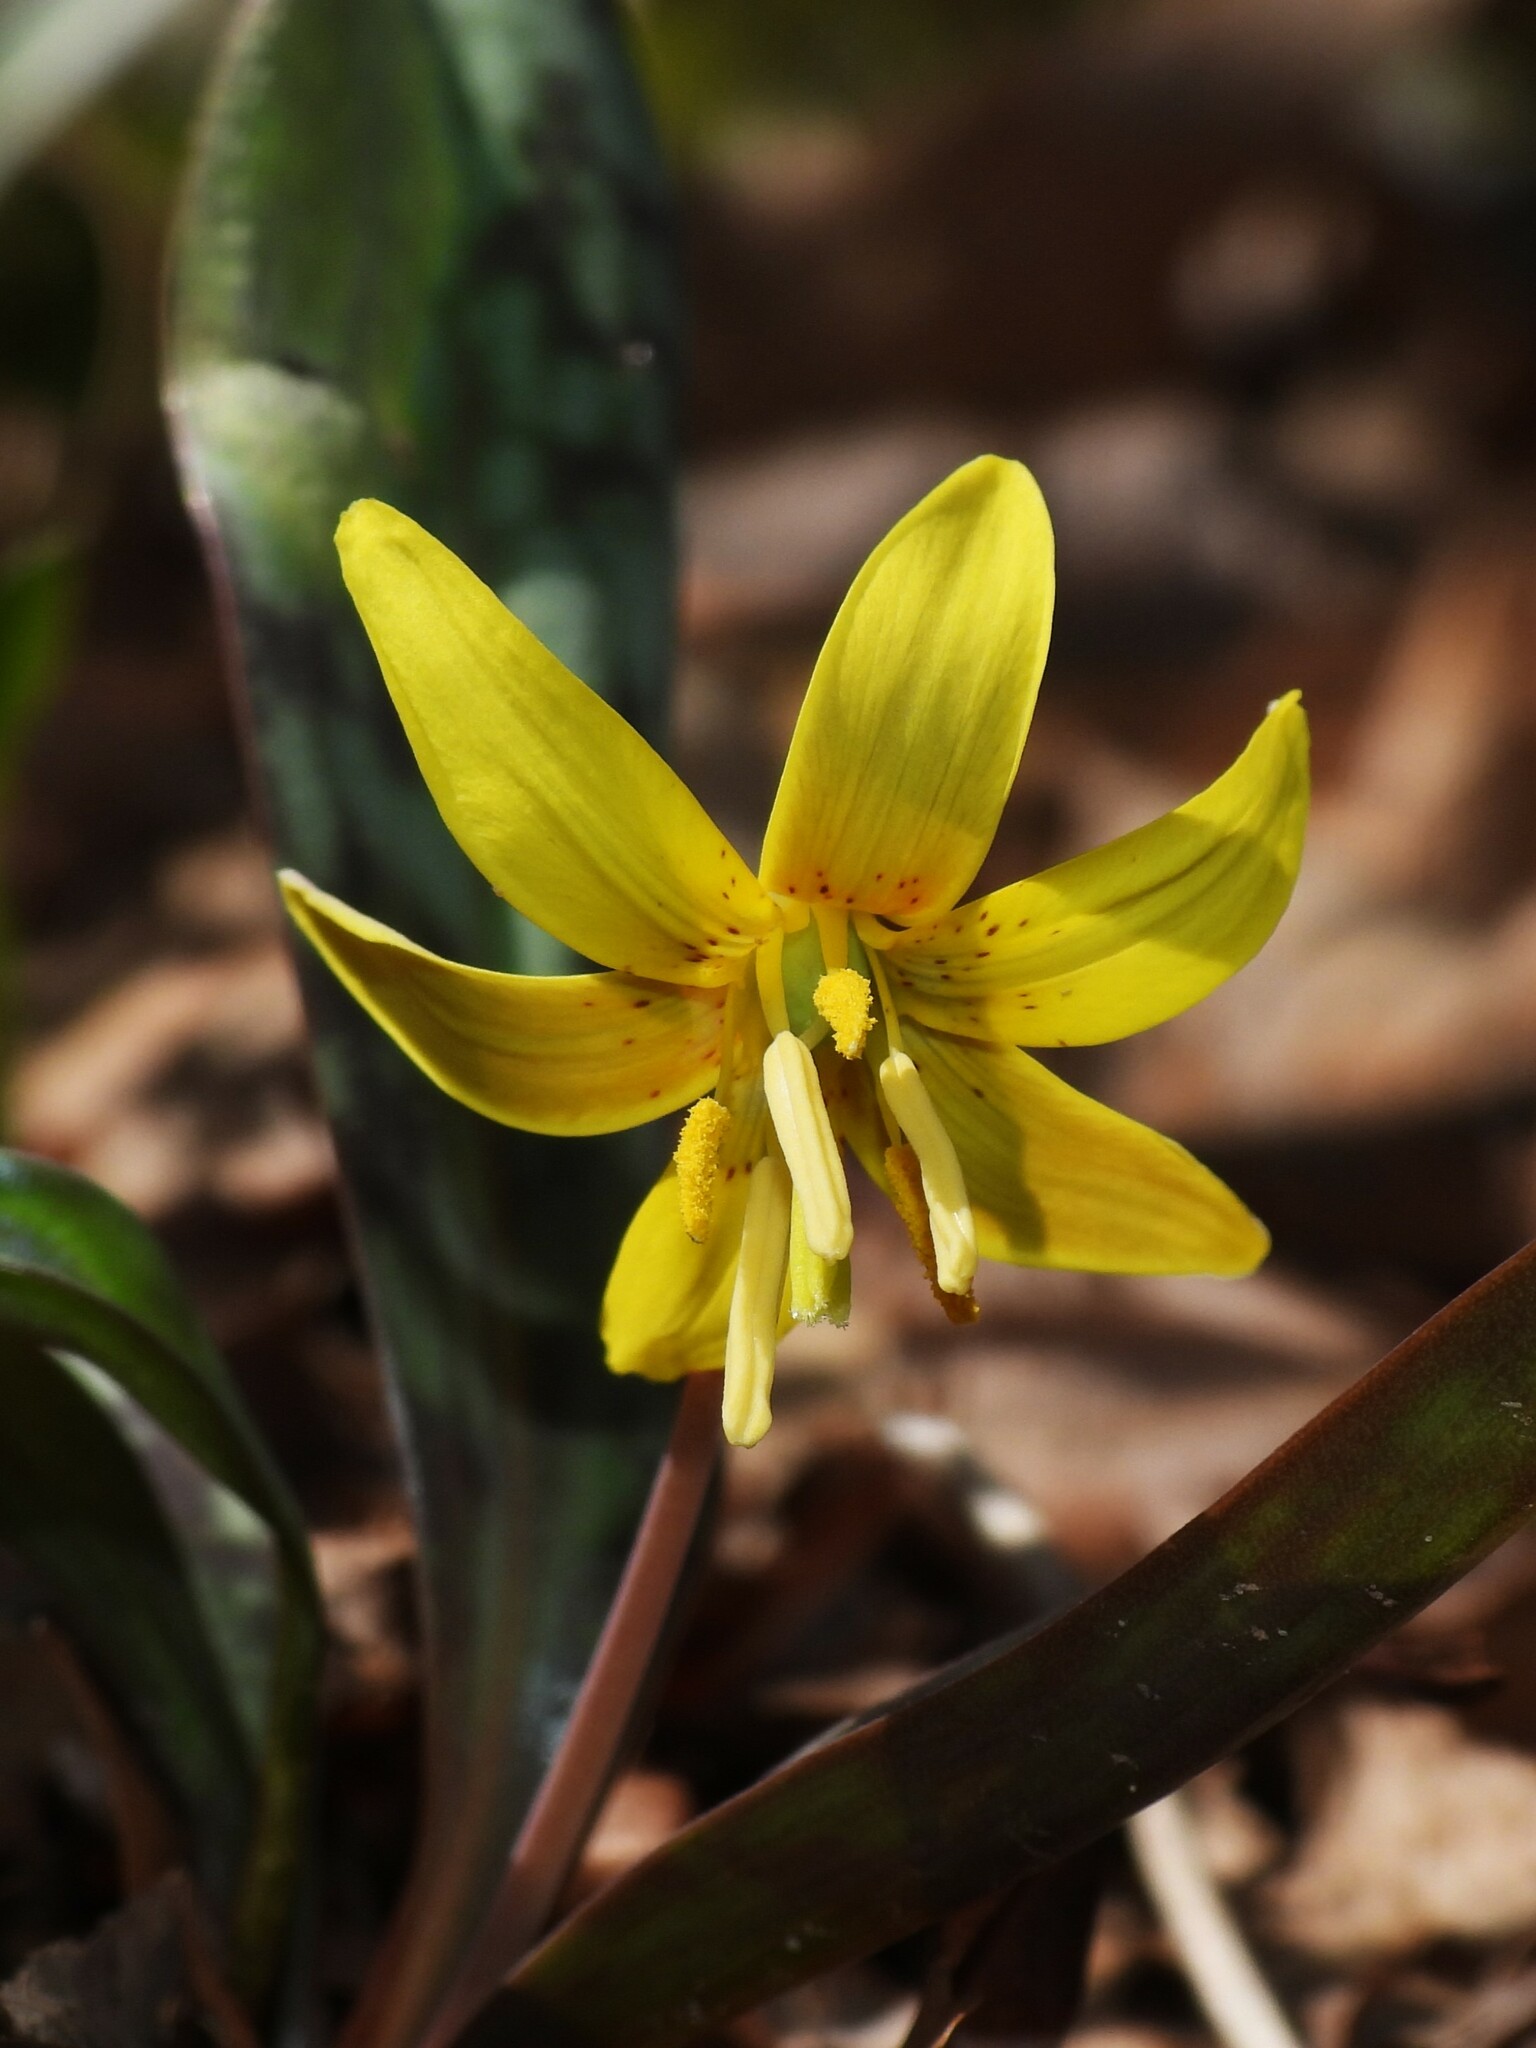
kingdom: Plantae
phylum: Tracheophyta
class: Liliopsida
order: Liliales
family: Liliaceae
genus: Erythronium
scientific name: Erythronium americanum
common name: Yellow adder's-tongue
